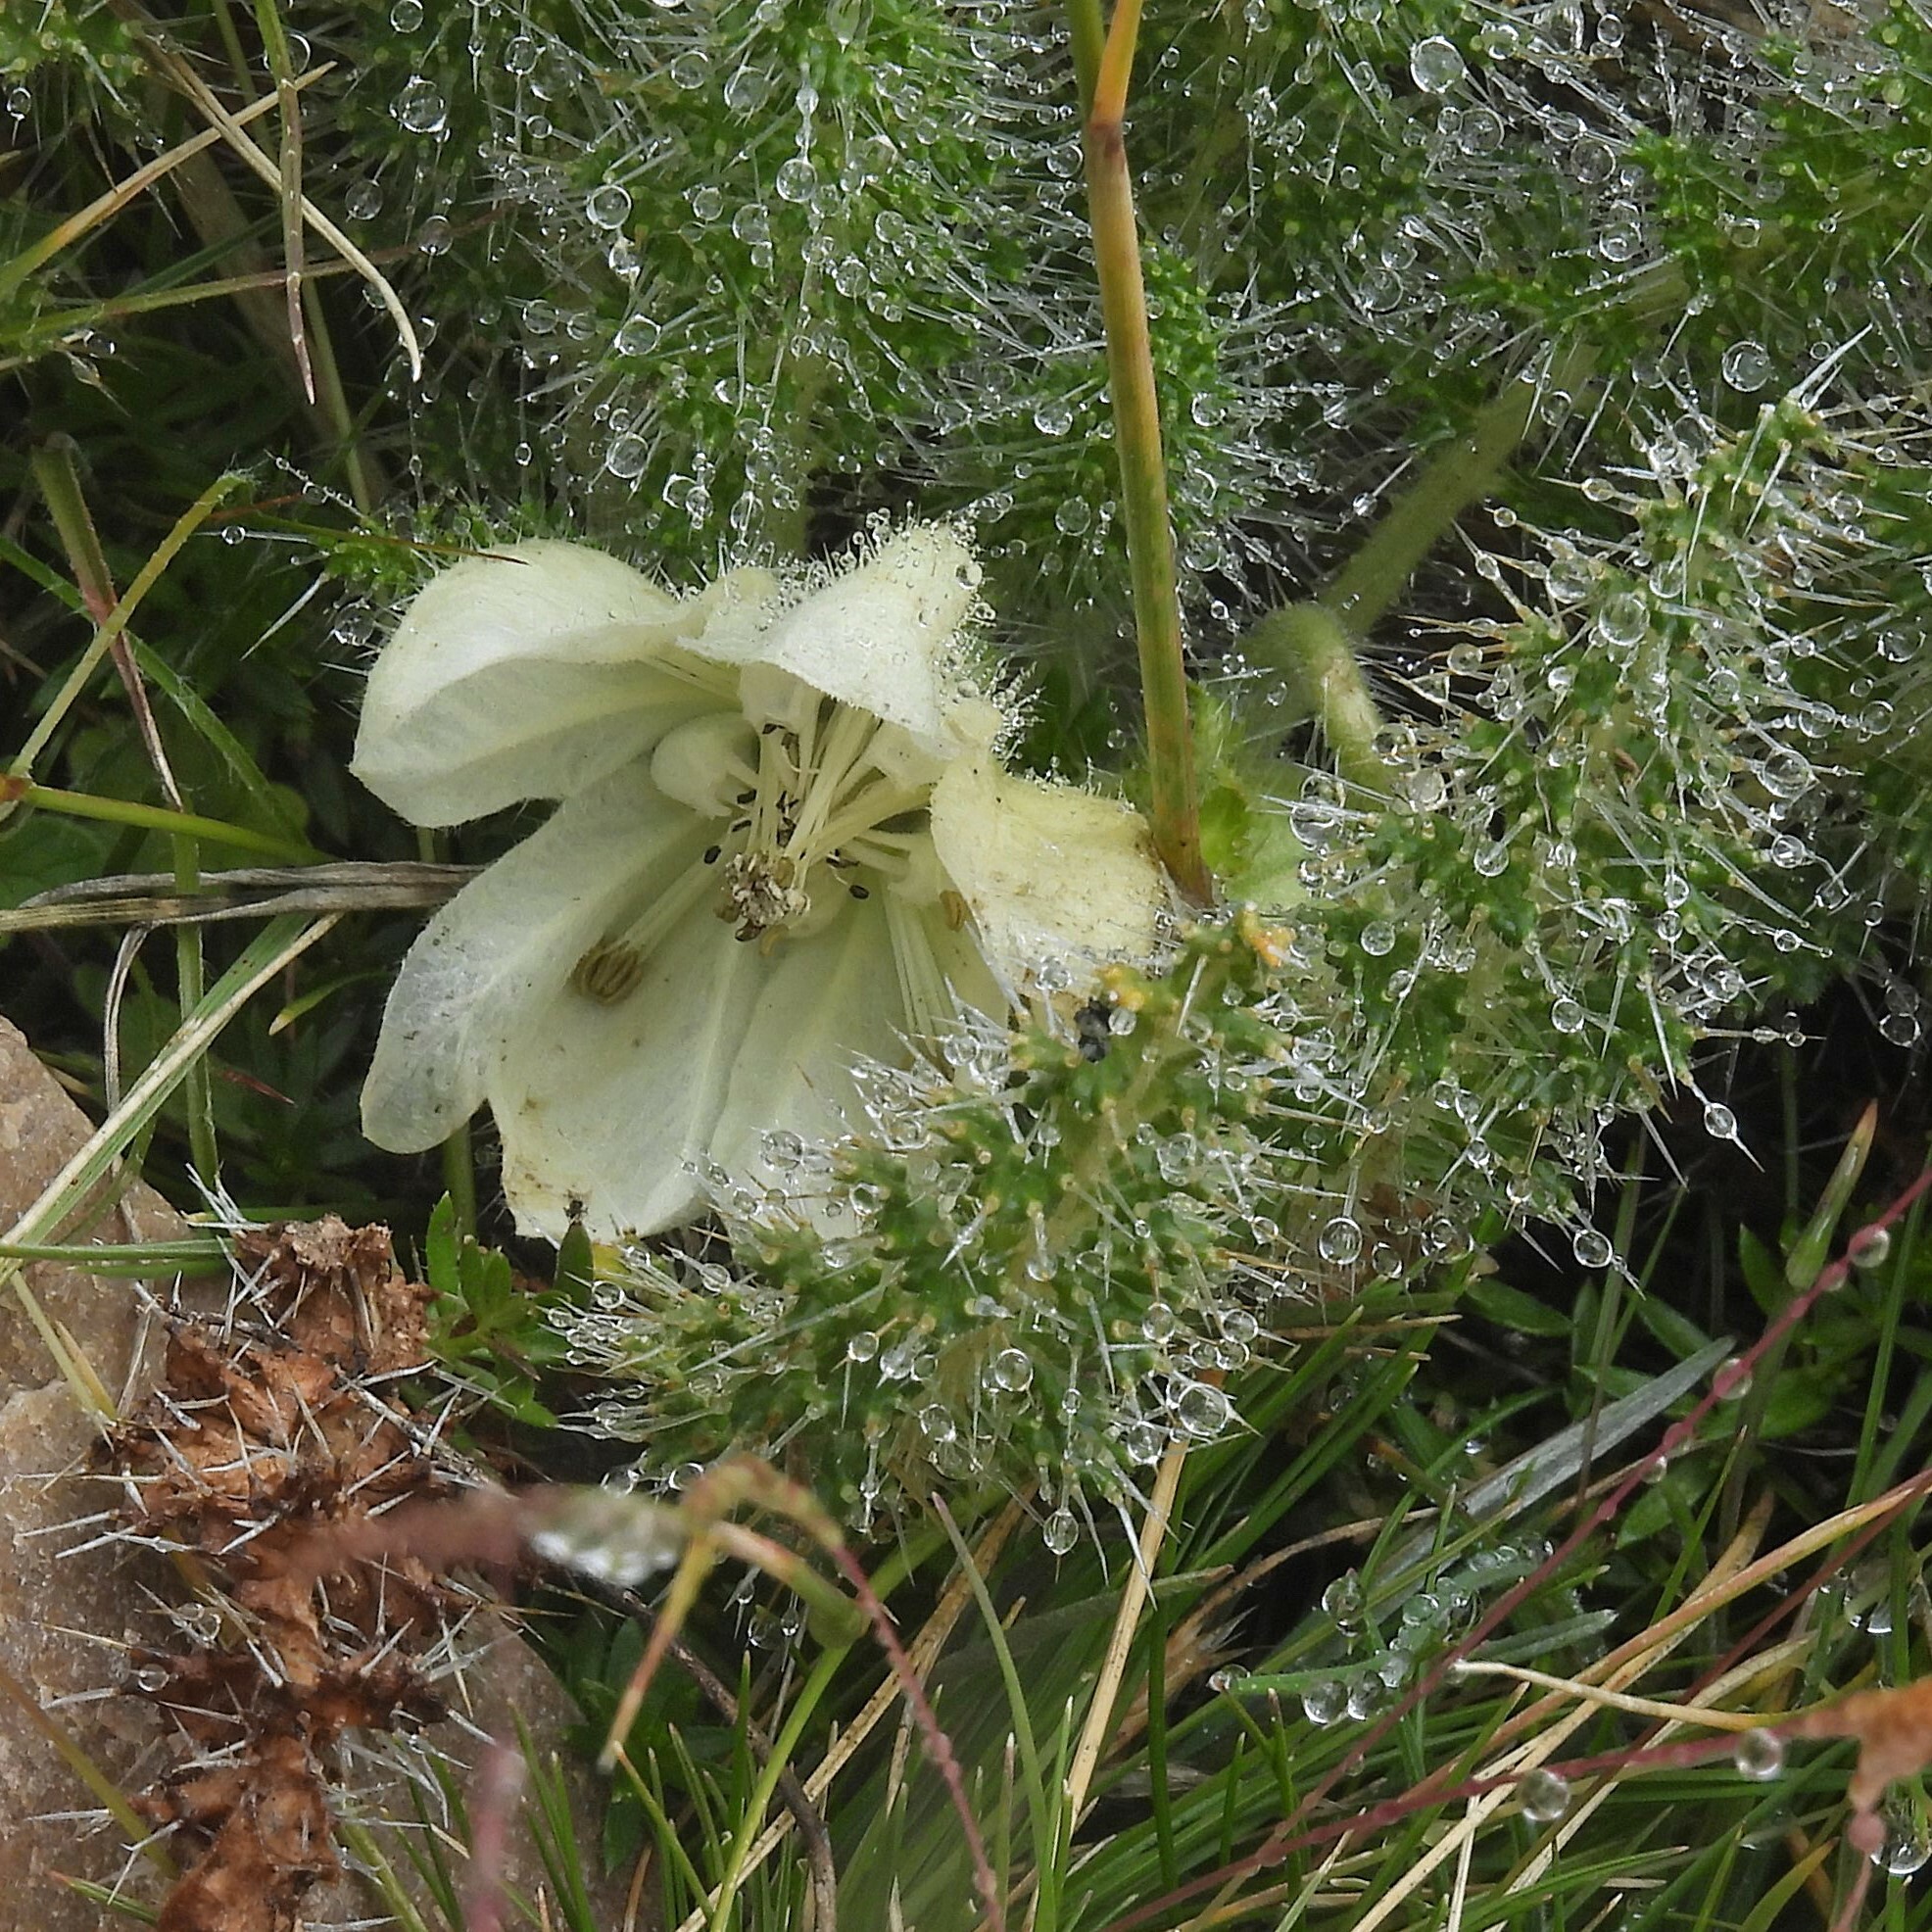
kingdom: Plantae
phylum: Tracheophyta
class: Magnoliopsida
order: Cornales
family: Loasaceae
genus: Caiophora
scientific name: Caiophora coronata
